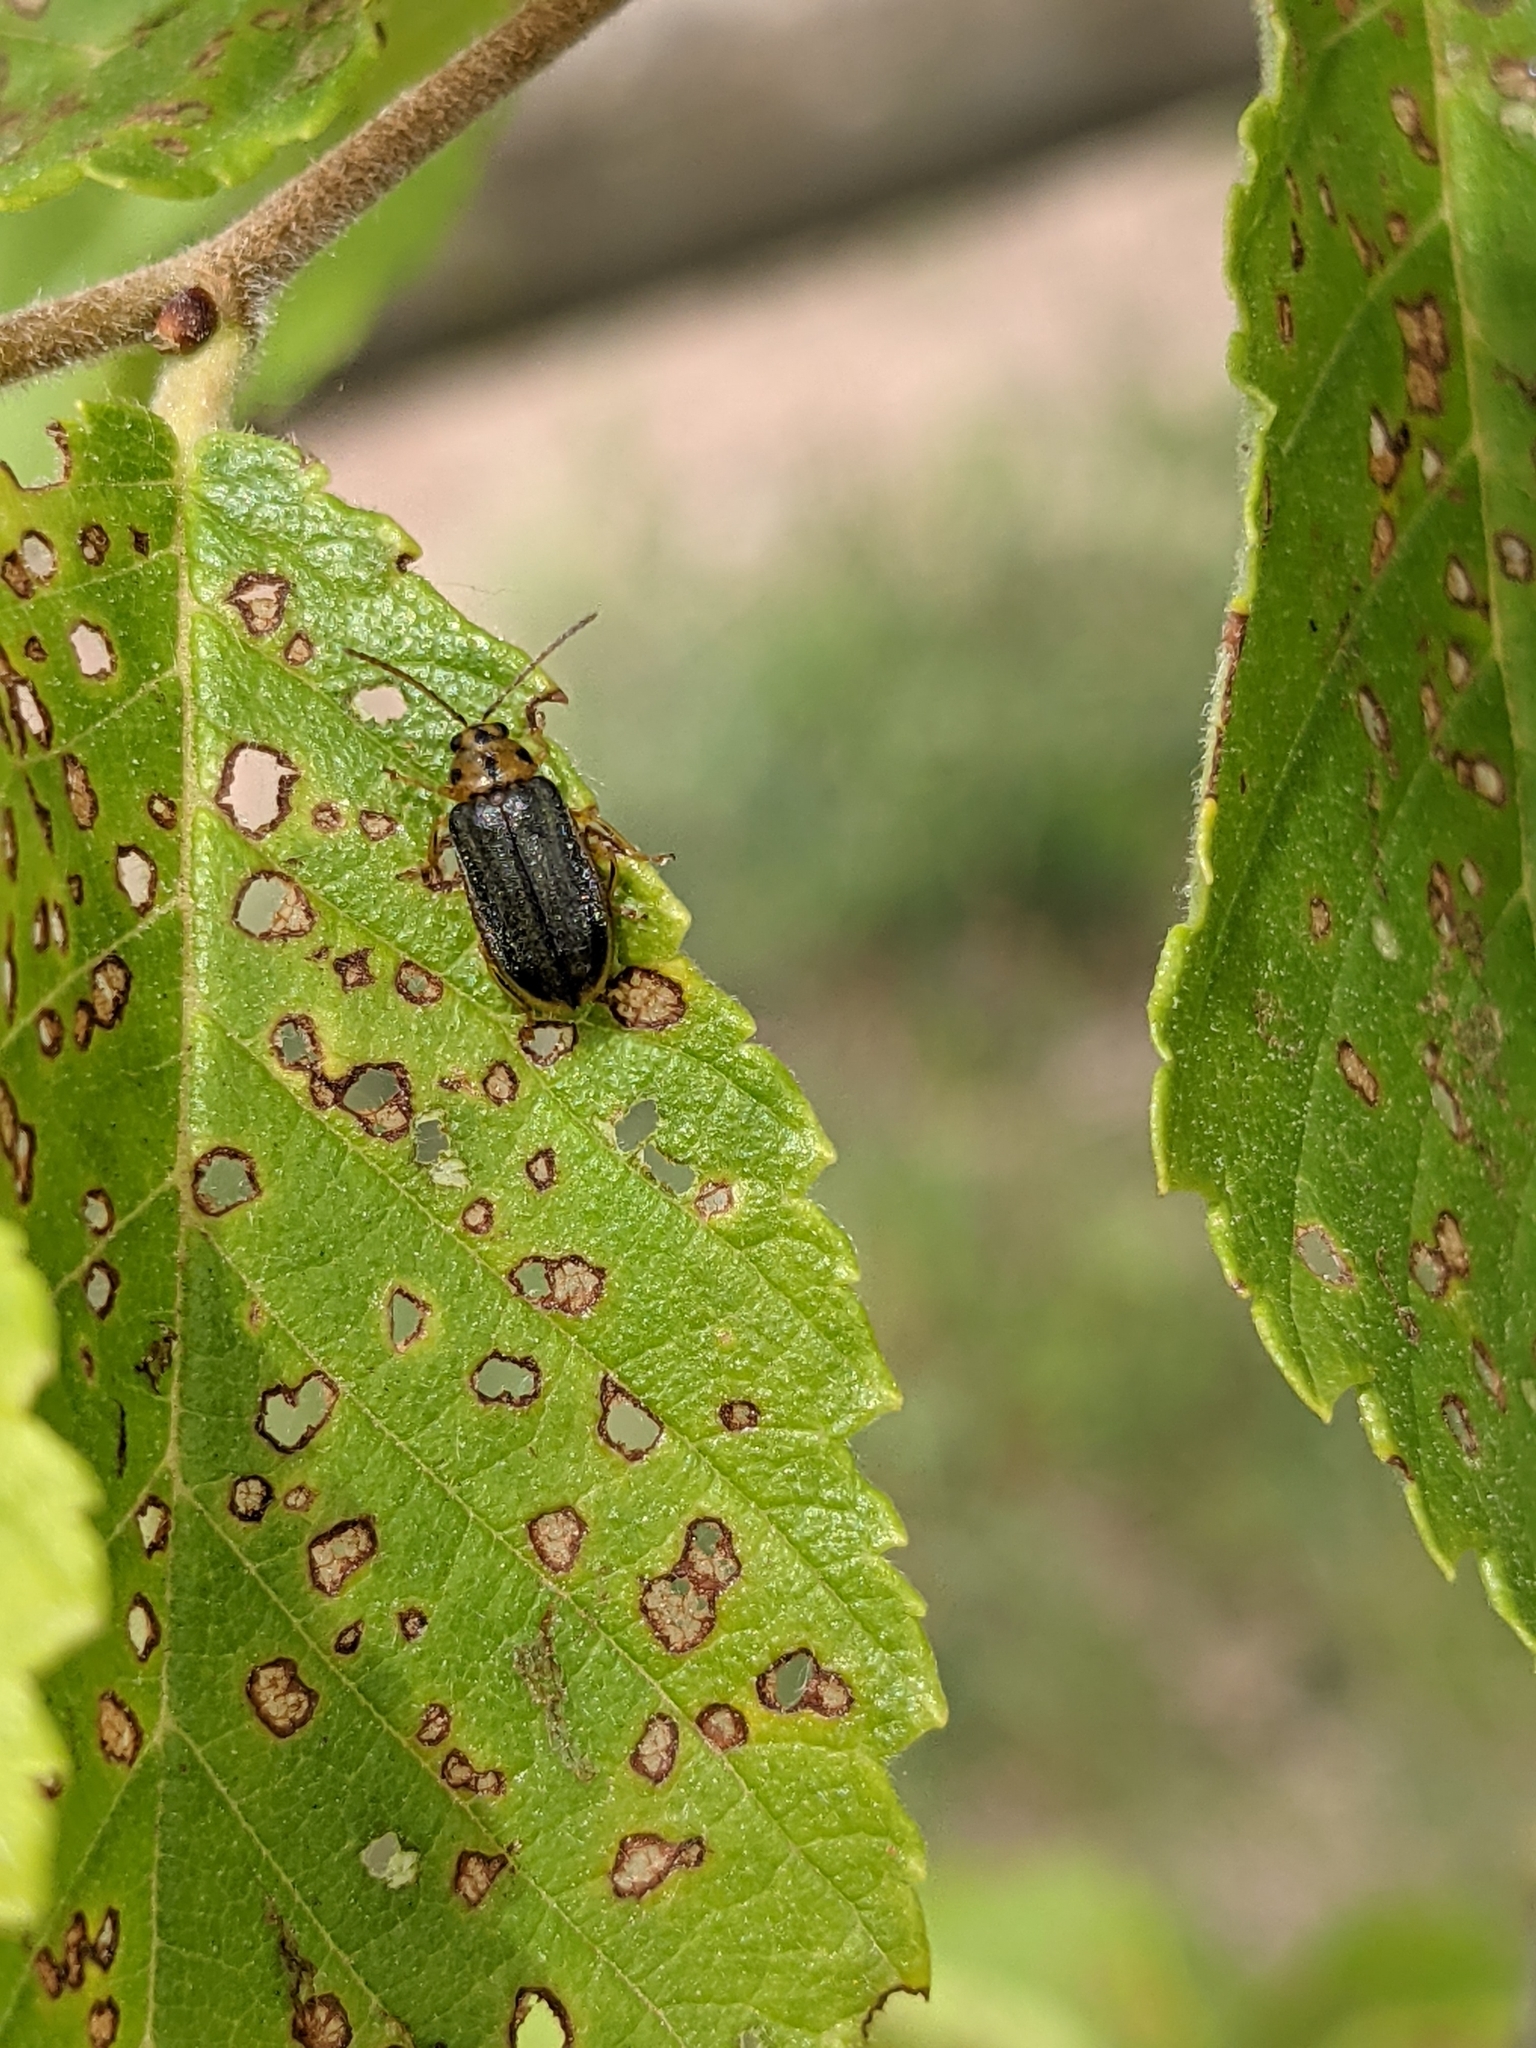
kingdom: Animalia
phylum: Arthropoda
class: Insecta
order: Coleoptera
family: Chrysomelidae
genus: Xanthogaleruca
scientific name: Xanthogaleruca luteola
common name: Elm leaf beetle
